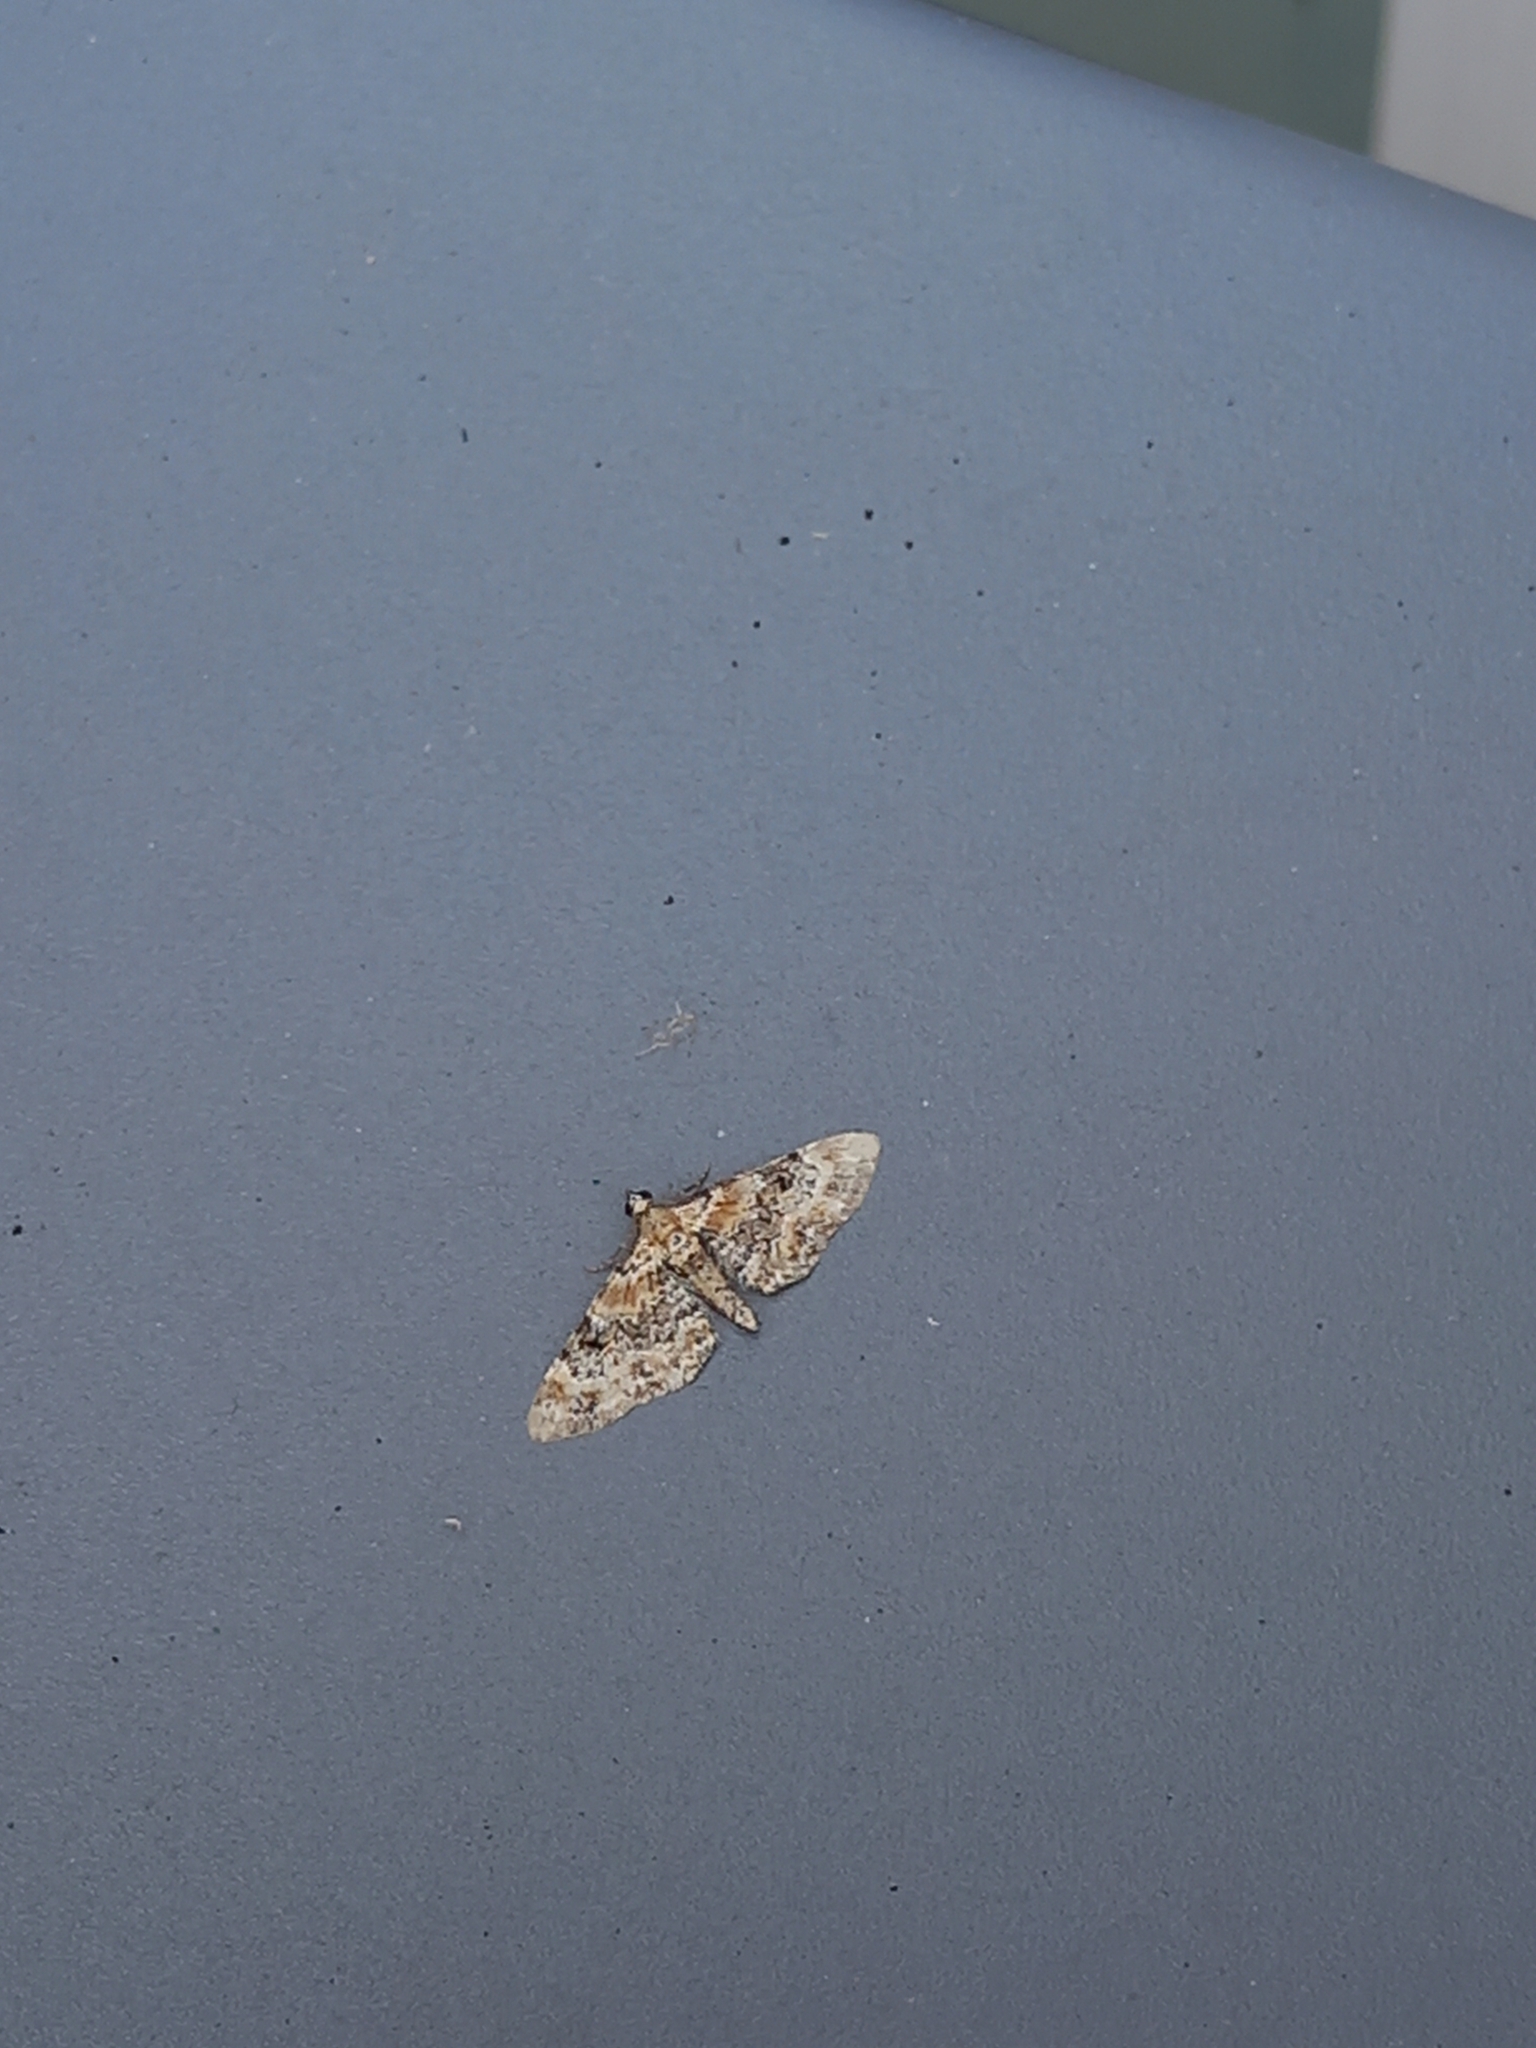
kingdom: Animalia
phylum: Arthropoda
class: Insecta
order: Lepidoptera
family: Geometridae
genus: Eupithecia
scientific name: Eupithecia pulchellata
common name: Foxglove pug
